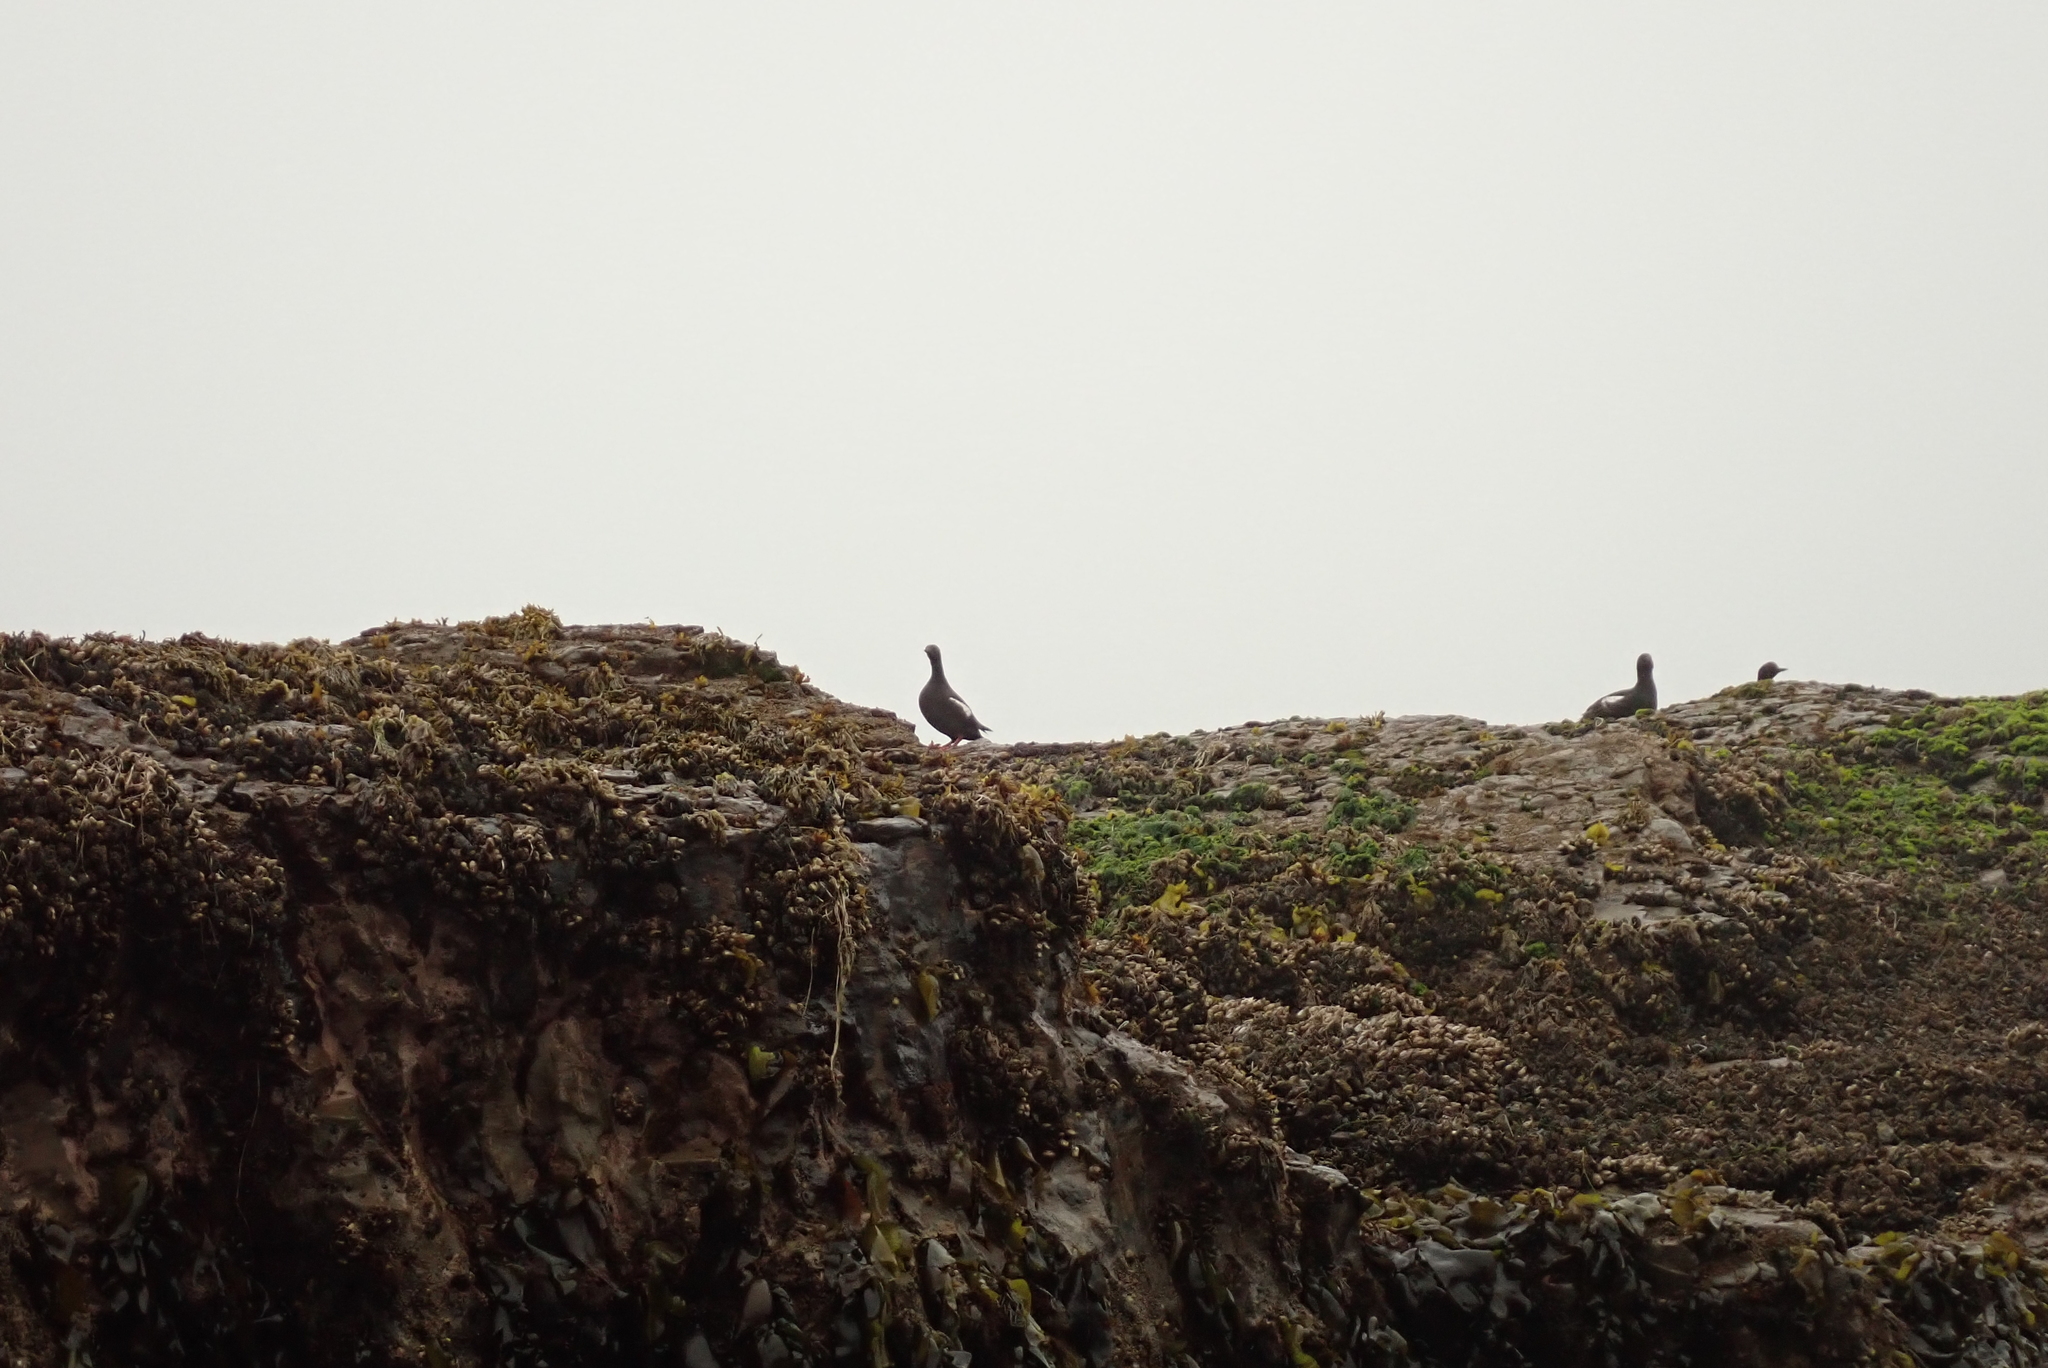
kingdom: Animalia
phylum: Chordata
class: Aves
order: Charadriiformes
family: Alcidae
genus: Cepphus
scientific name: Cepphus columba
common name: Pigeon guillemot
